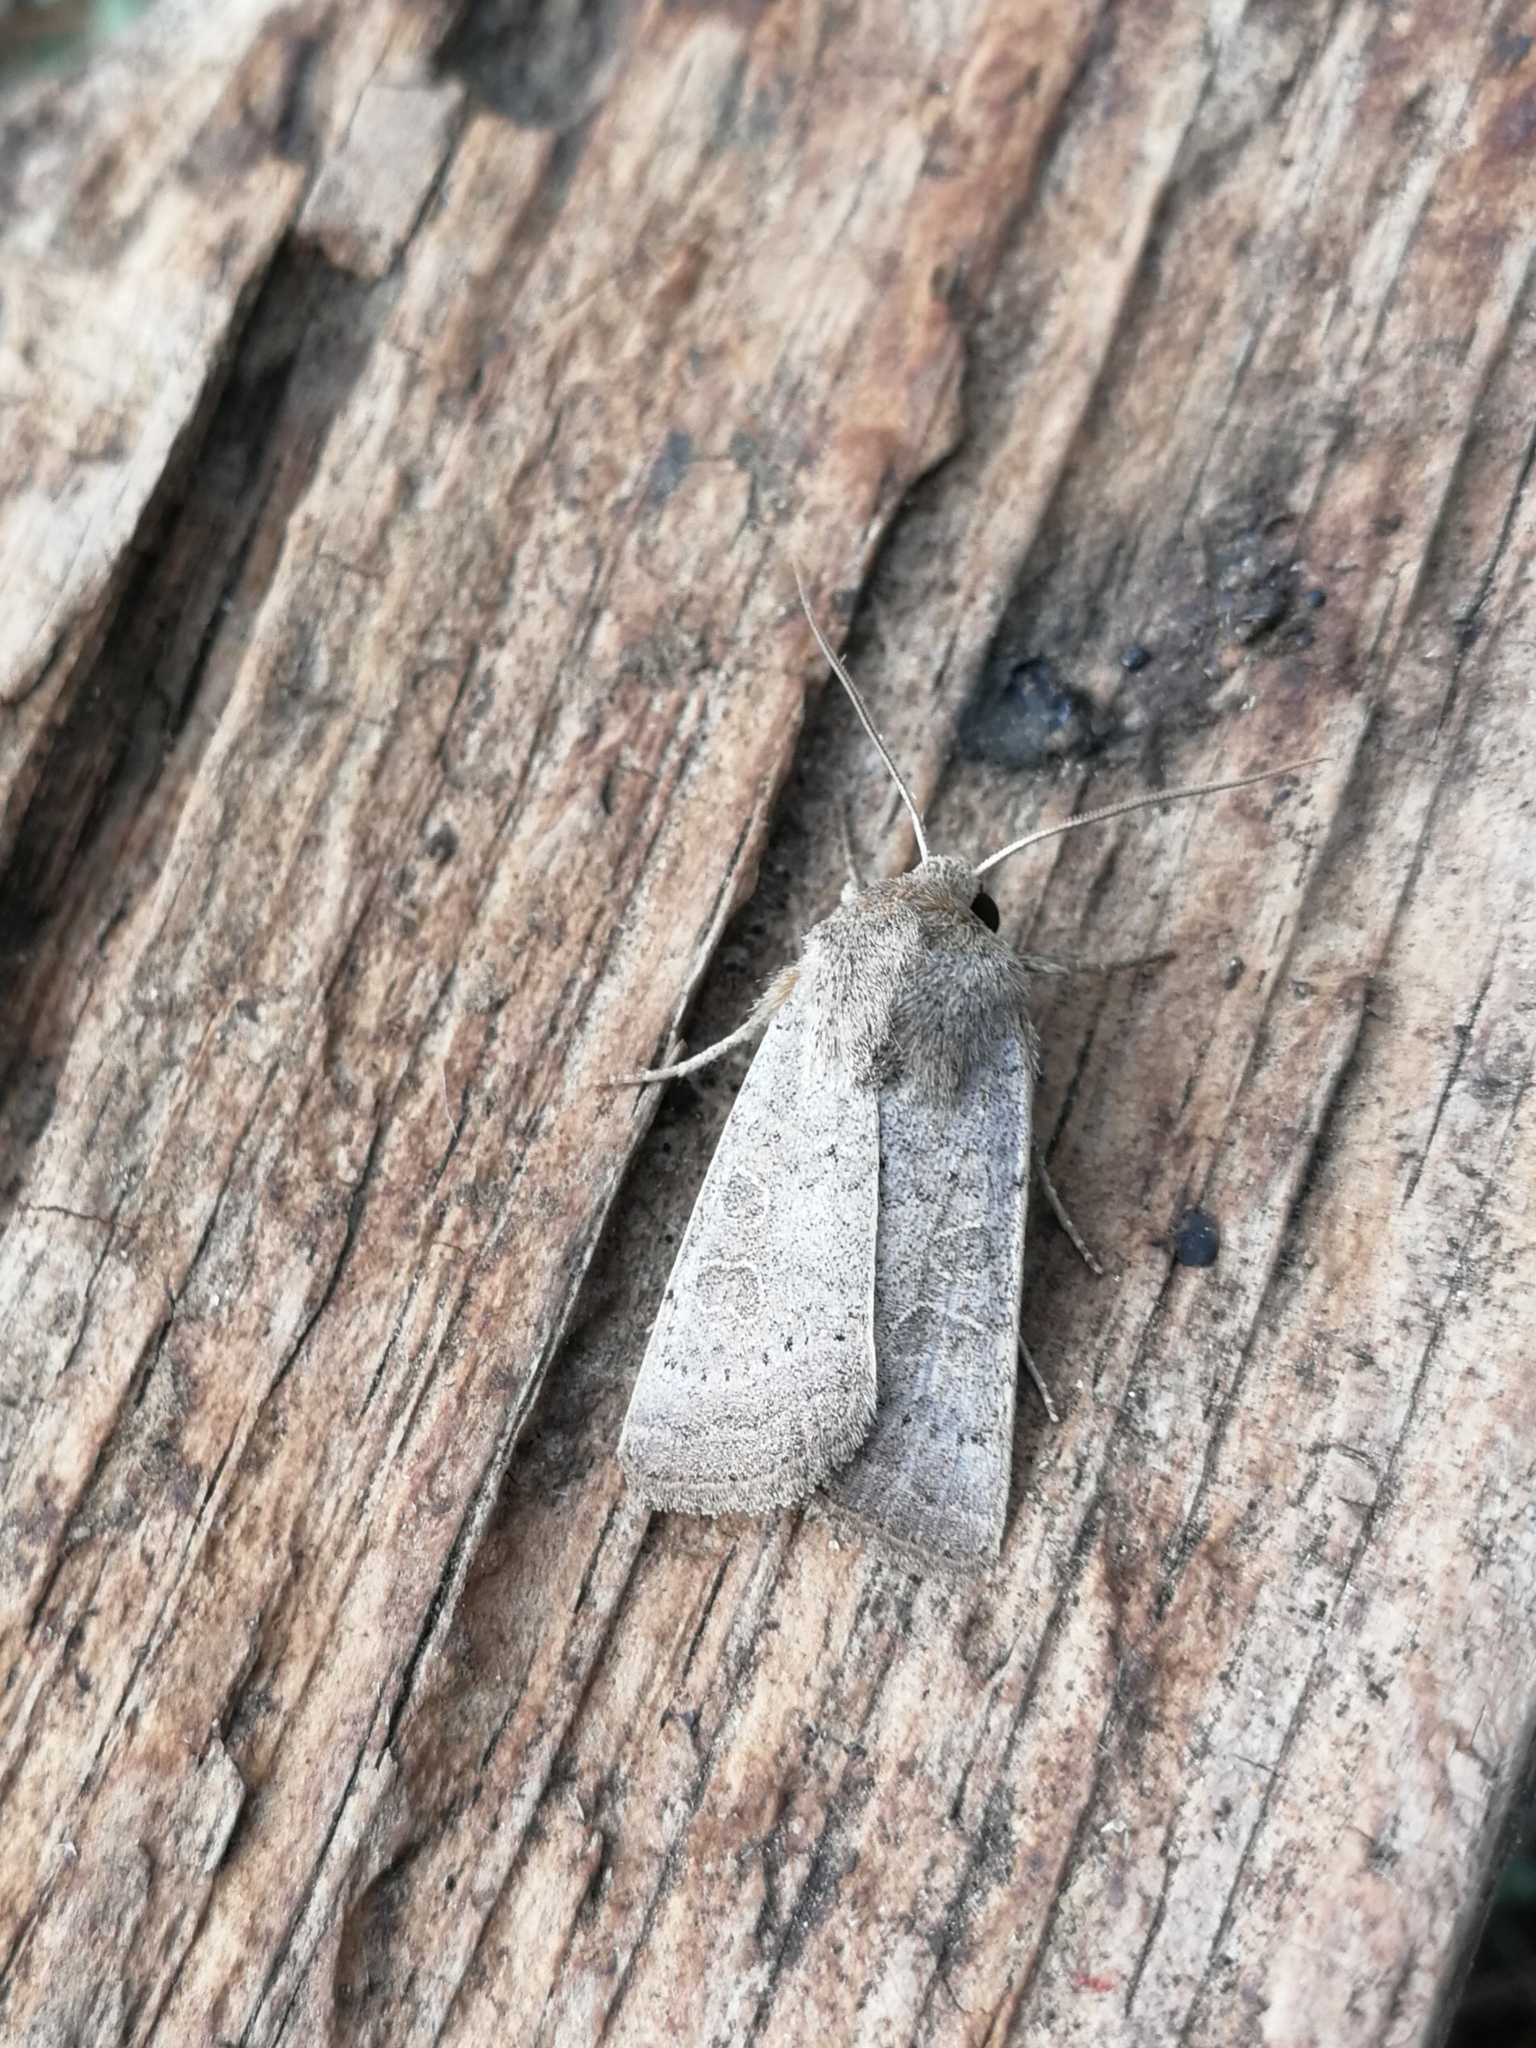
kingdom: Animalia
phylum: Arthropoda
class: Insecta
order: Lepidoptera
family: Noctuidae
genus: Hoplodrina
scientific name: Hoplodrina ambigua
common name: Vine's rustic
